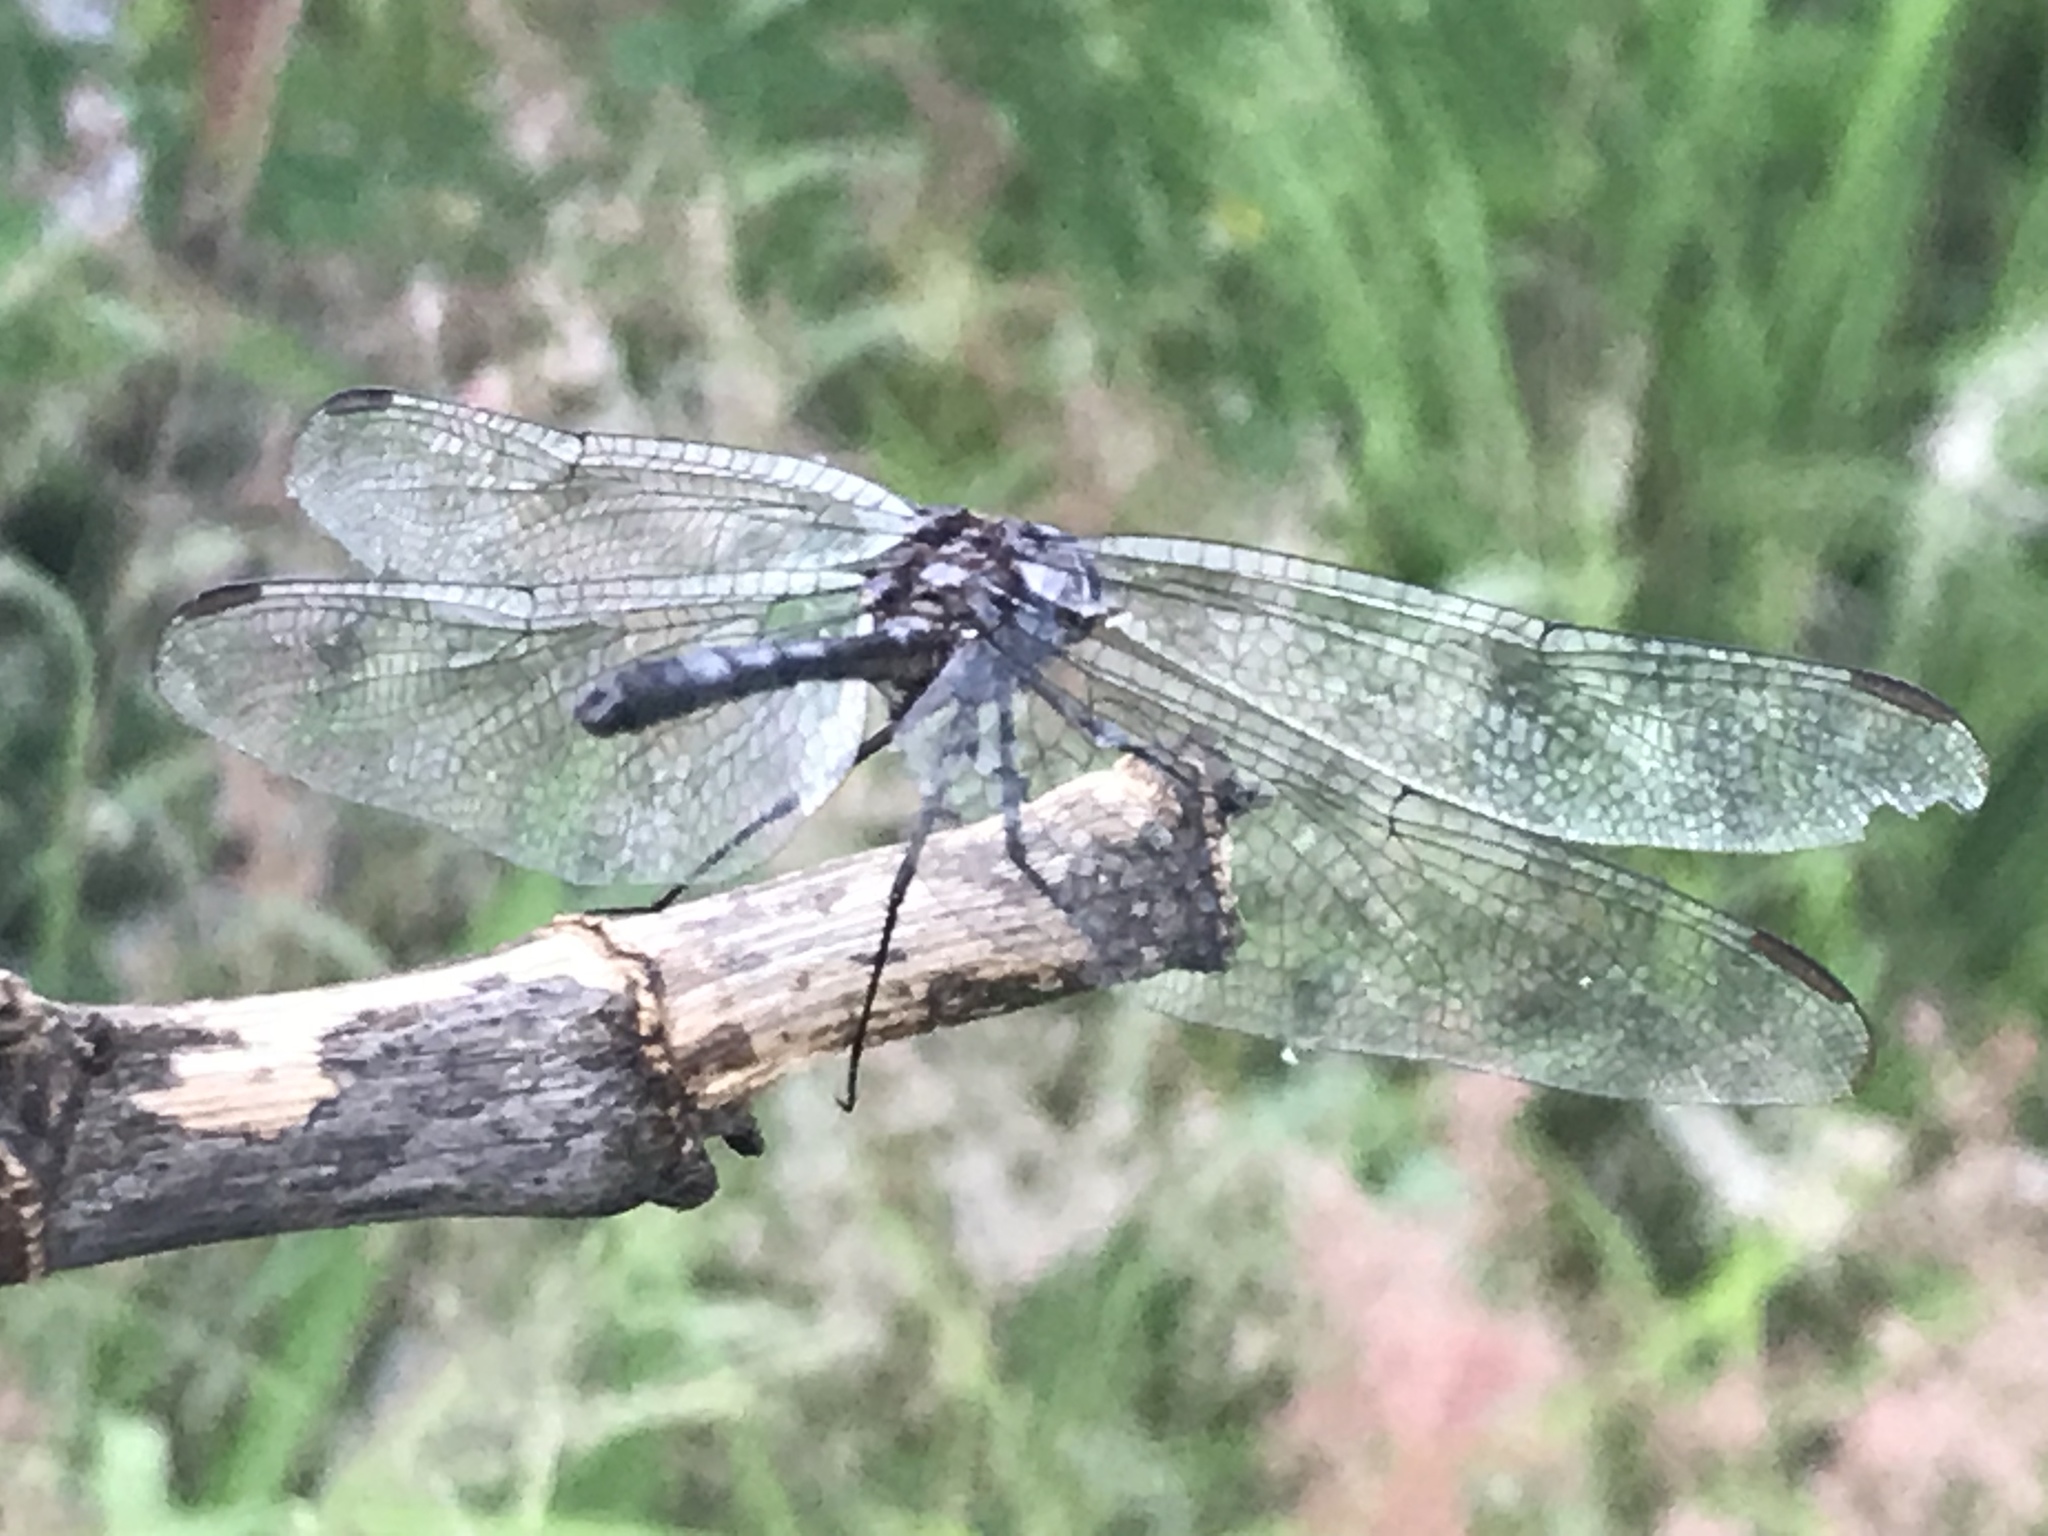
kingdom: Animalia
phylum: Arthropoda
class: Insecta
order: Odonata
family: Libellulidae
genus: Dythemis
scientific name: Dythemis nigrescens
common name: Black setwing
